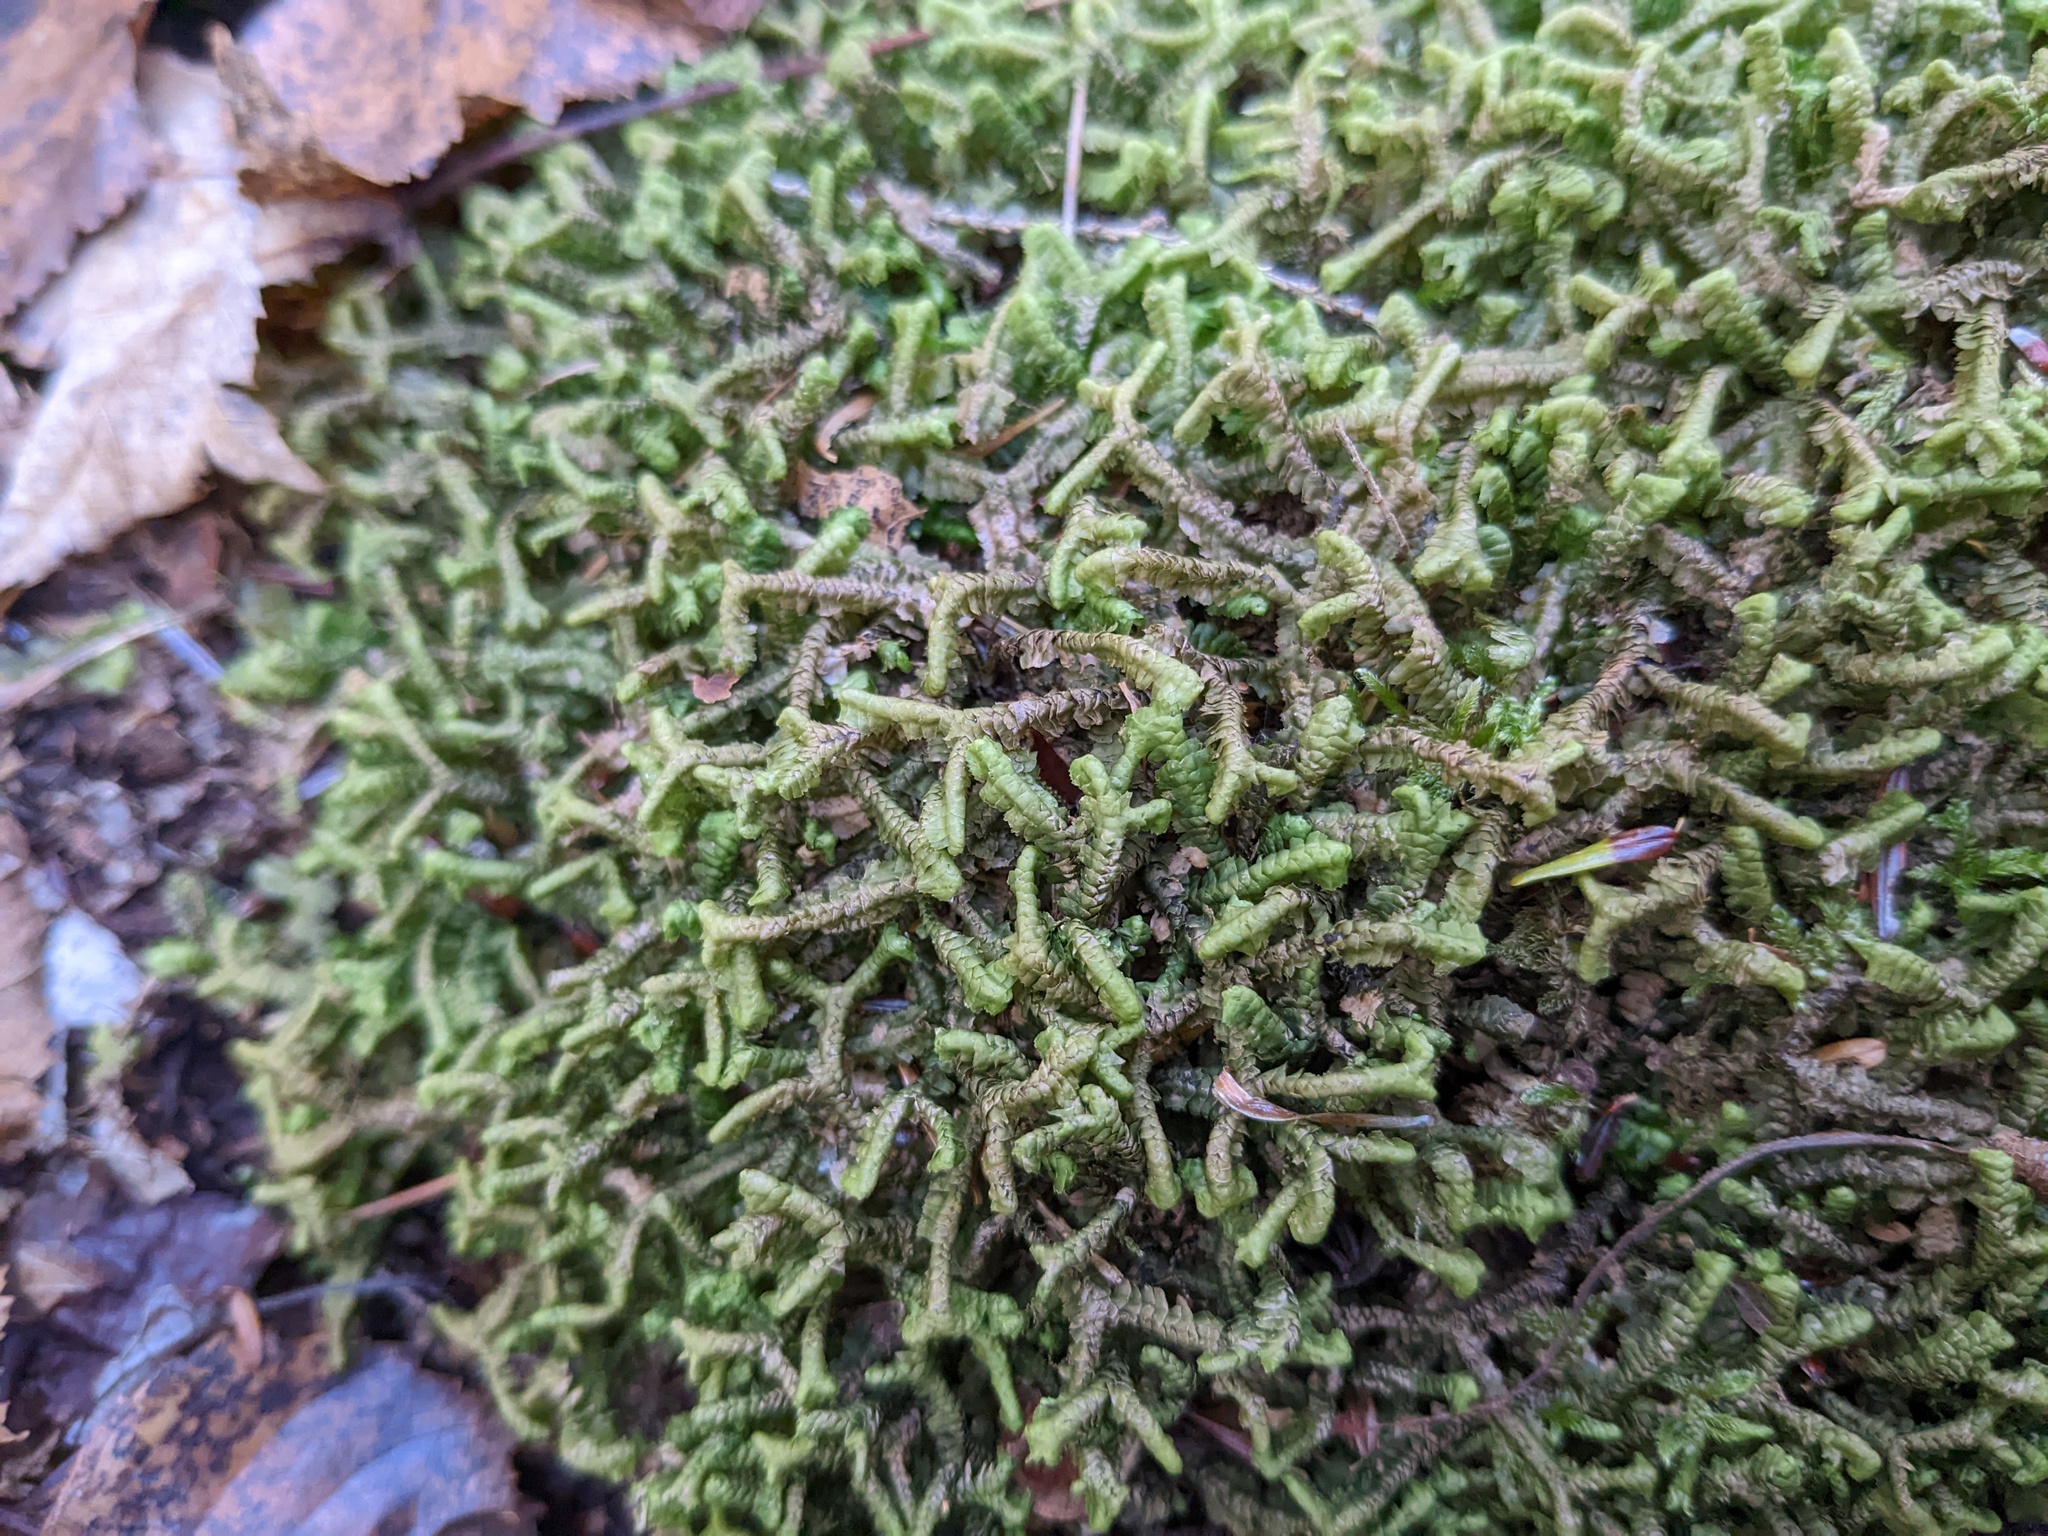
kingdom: Plantae
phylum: Marchantiophyta
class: Jungermanniopsida
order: Jungermanniales
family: Lepidoziaceae
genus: Bazzania
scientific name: Bazzania trilobata
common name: Three-lobed whipwort
